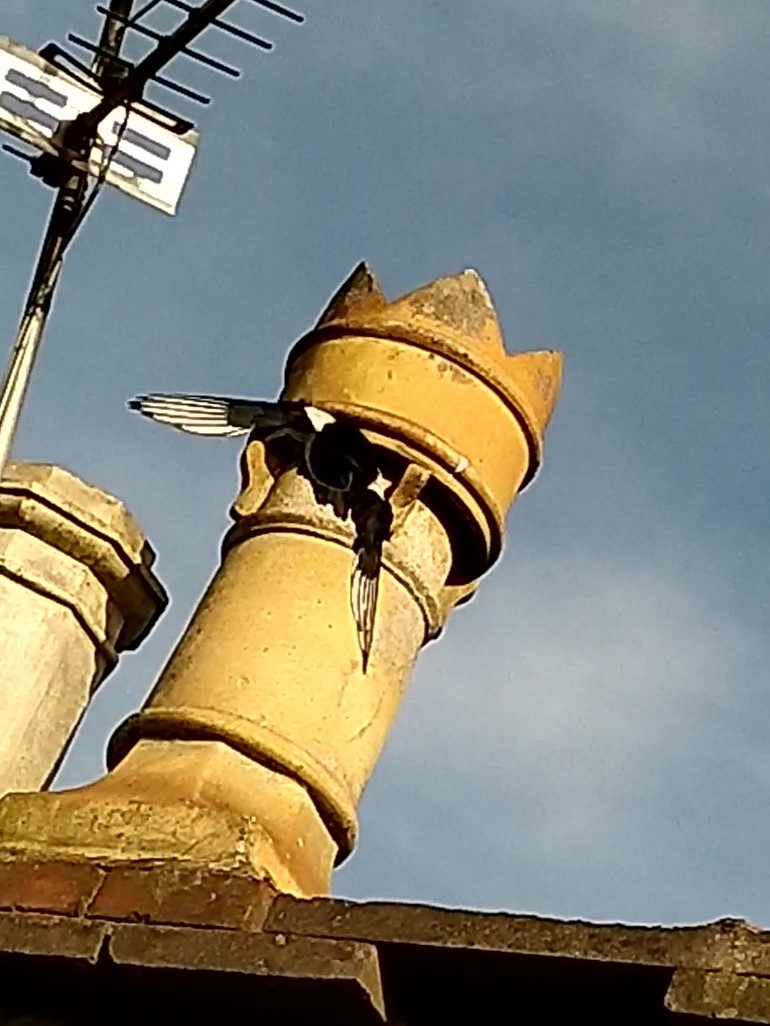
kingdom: Animalia
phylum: Chordata
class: Aves
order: Passeriformes
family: Corvidae
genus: Pica
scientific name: Pica pica
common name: Eurasian magpie
